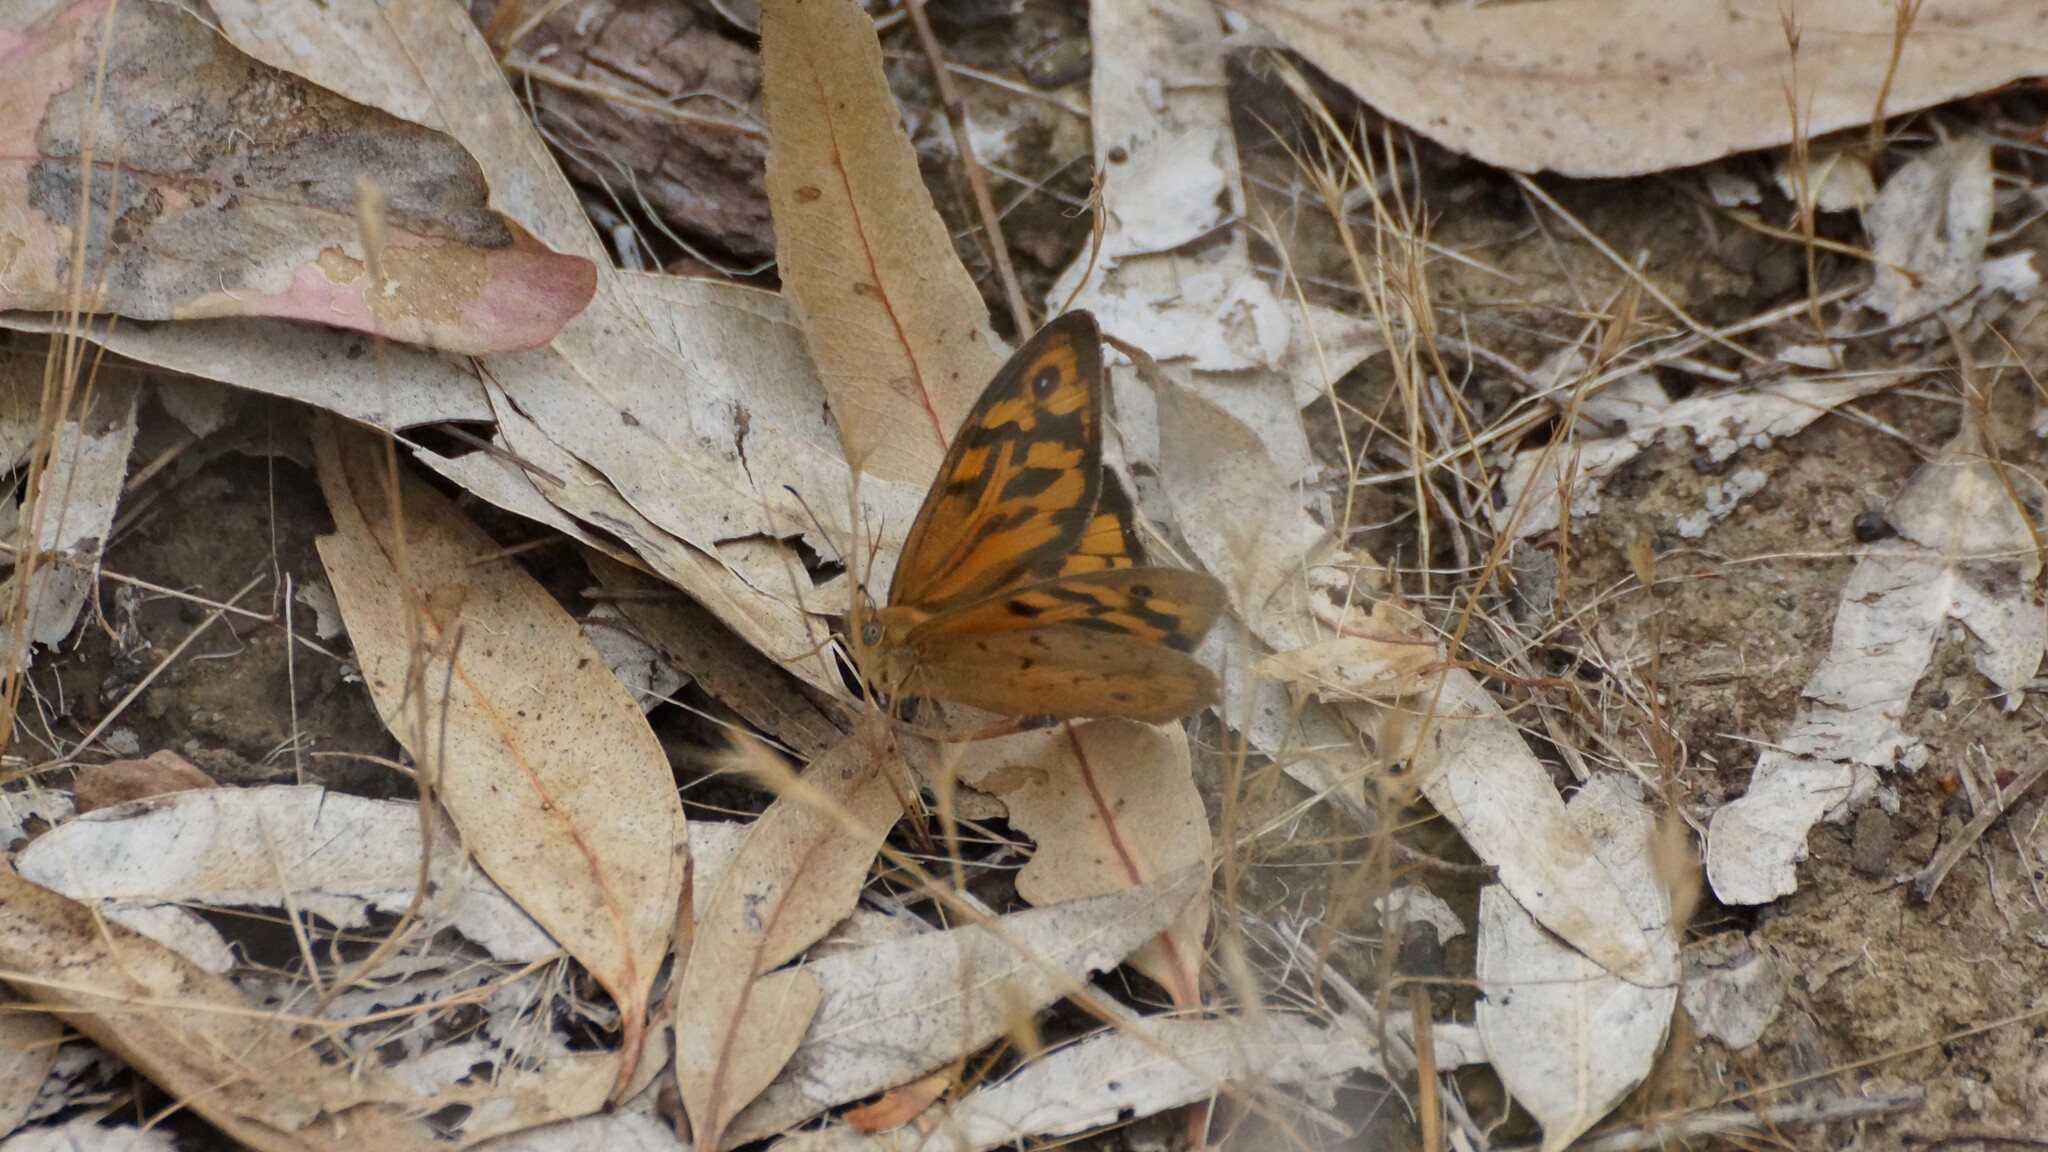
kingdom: Animalia
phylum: Arthropoda
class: Insecta
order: Lepidoptera
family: Nymphalidae
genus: Heteronympha
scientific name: Heteronympha merope
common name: Common brown
